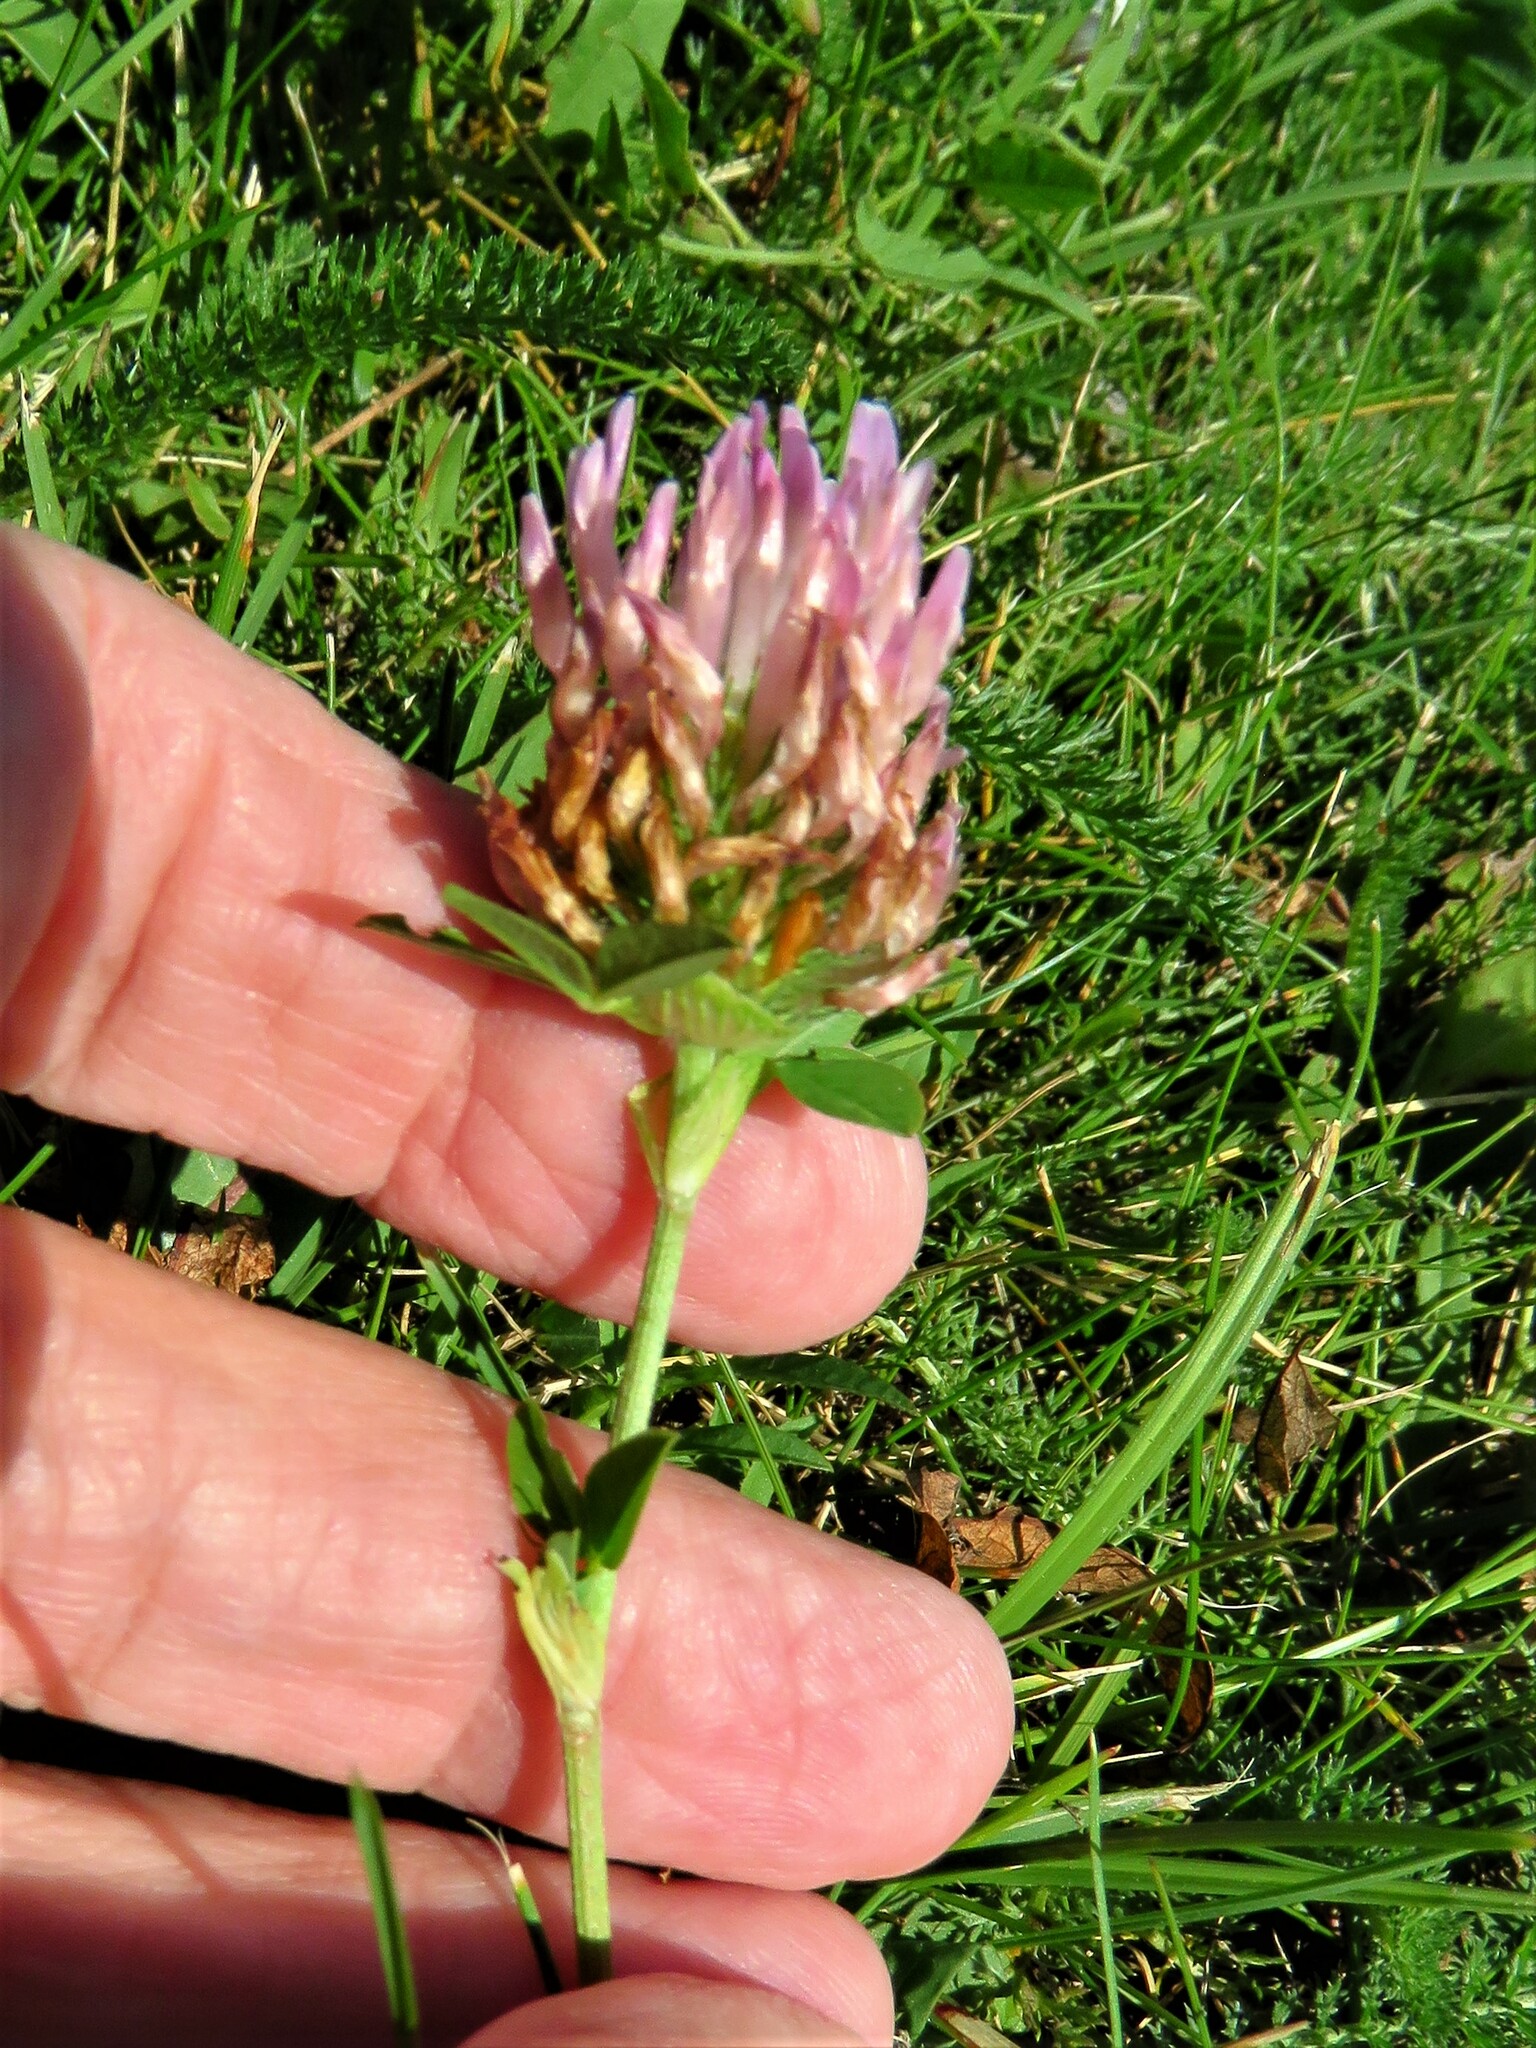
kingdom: Plantae
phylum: Tracheophyta
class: Magnoliopsida
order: Fabales
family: Fabaceae
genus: Trifolium
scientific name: Trifolium pratense
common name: Red clover
